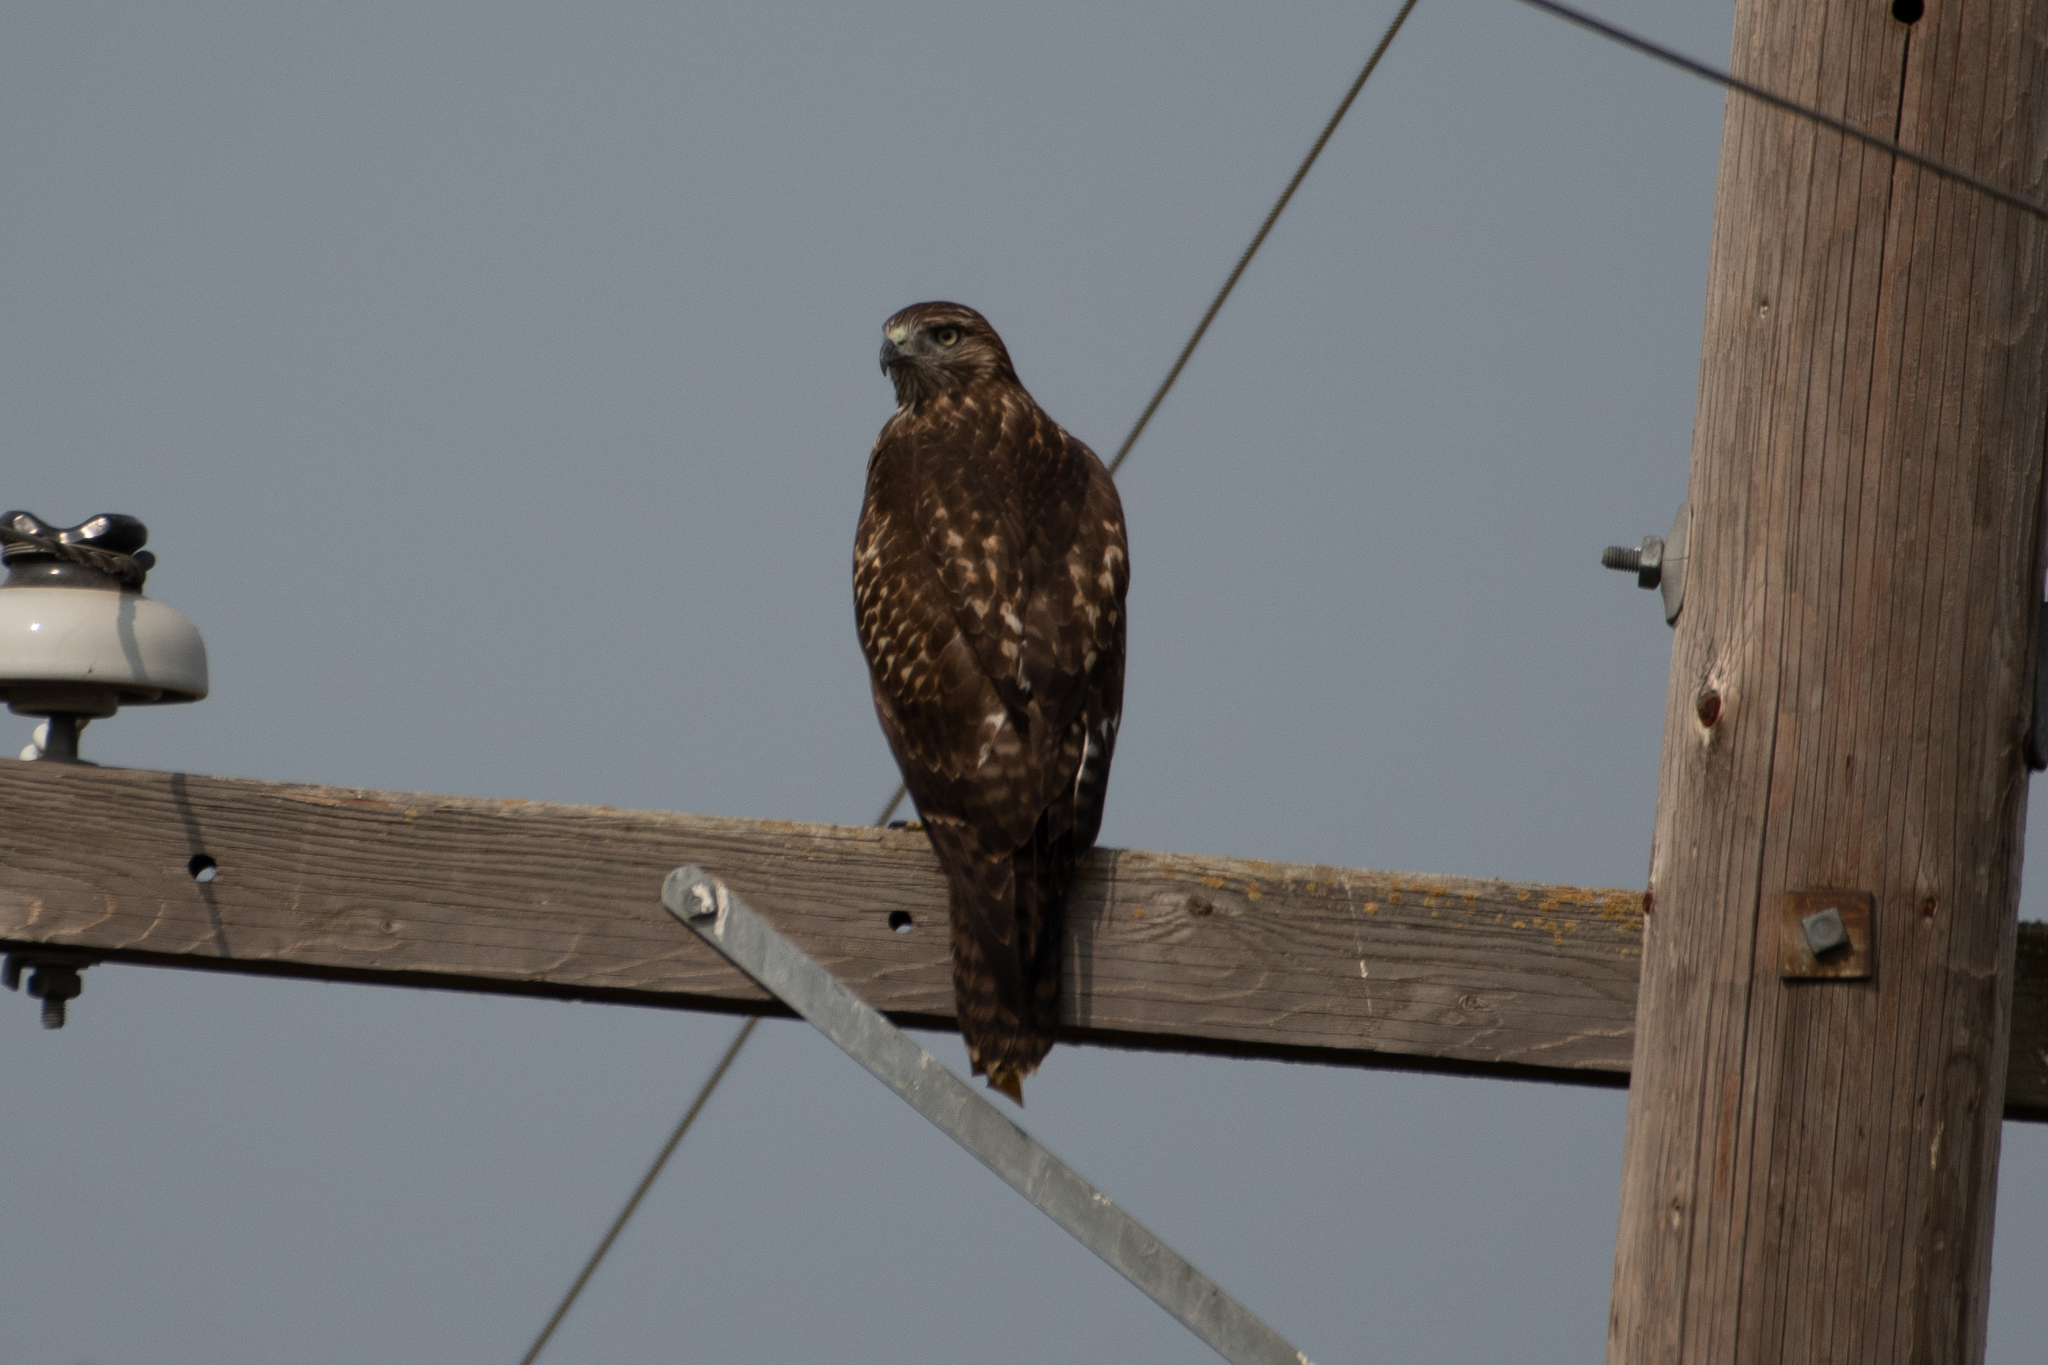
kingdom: Animalia
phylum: Chordata
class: Aves
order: Accipitriformes
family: Accipitridae
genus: Buteo
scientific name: Buteo jamaicensis
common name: Red-tailed hawk
